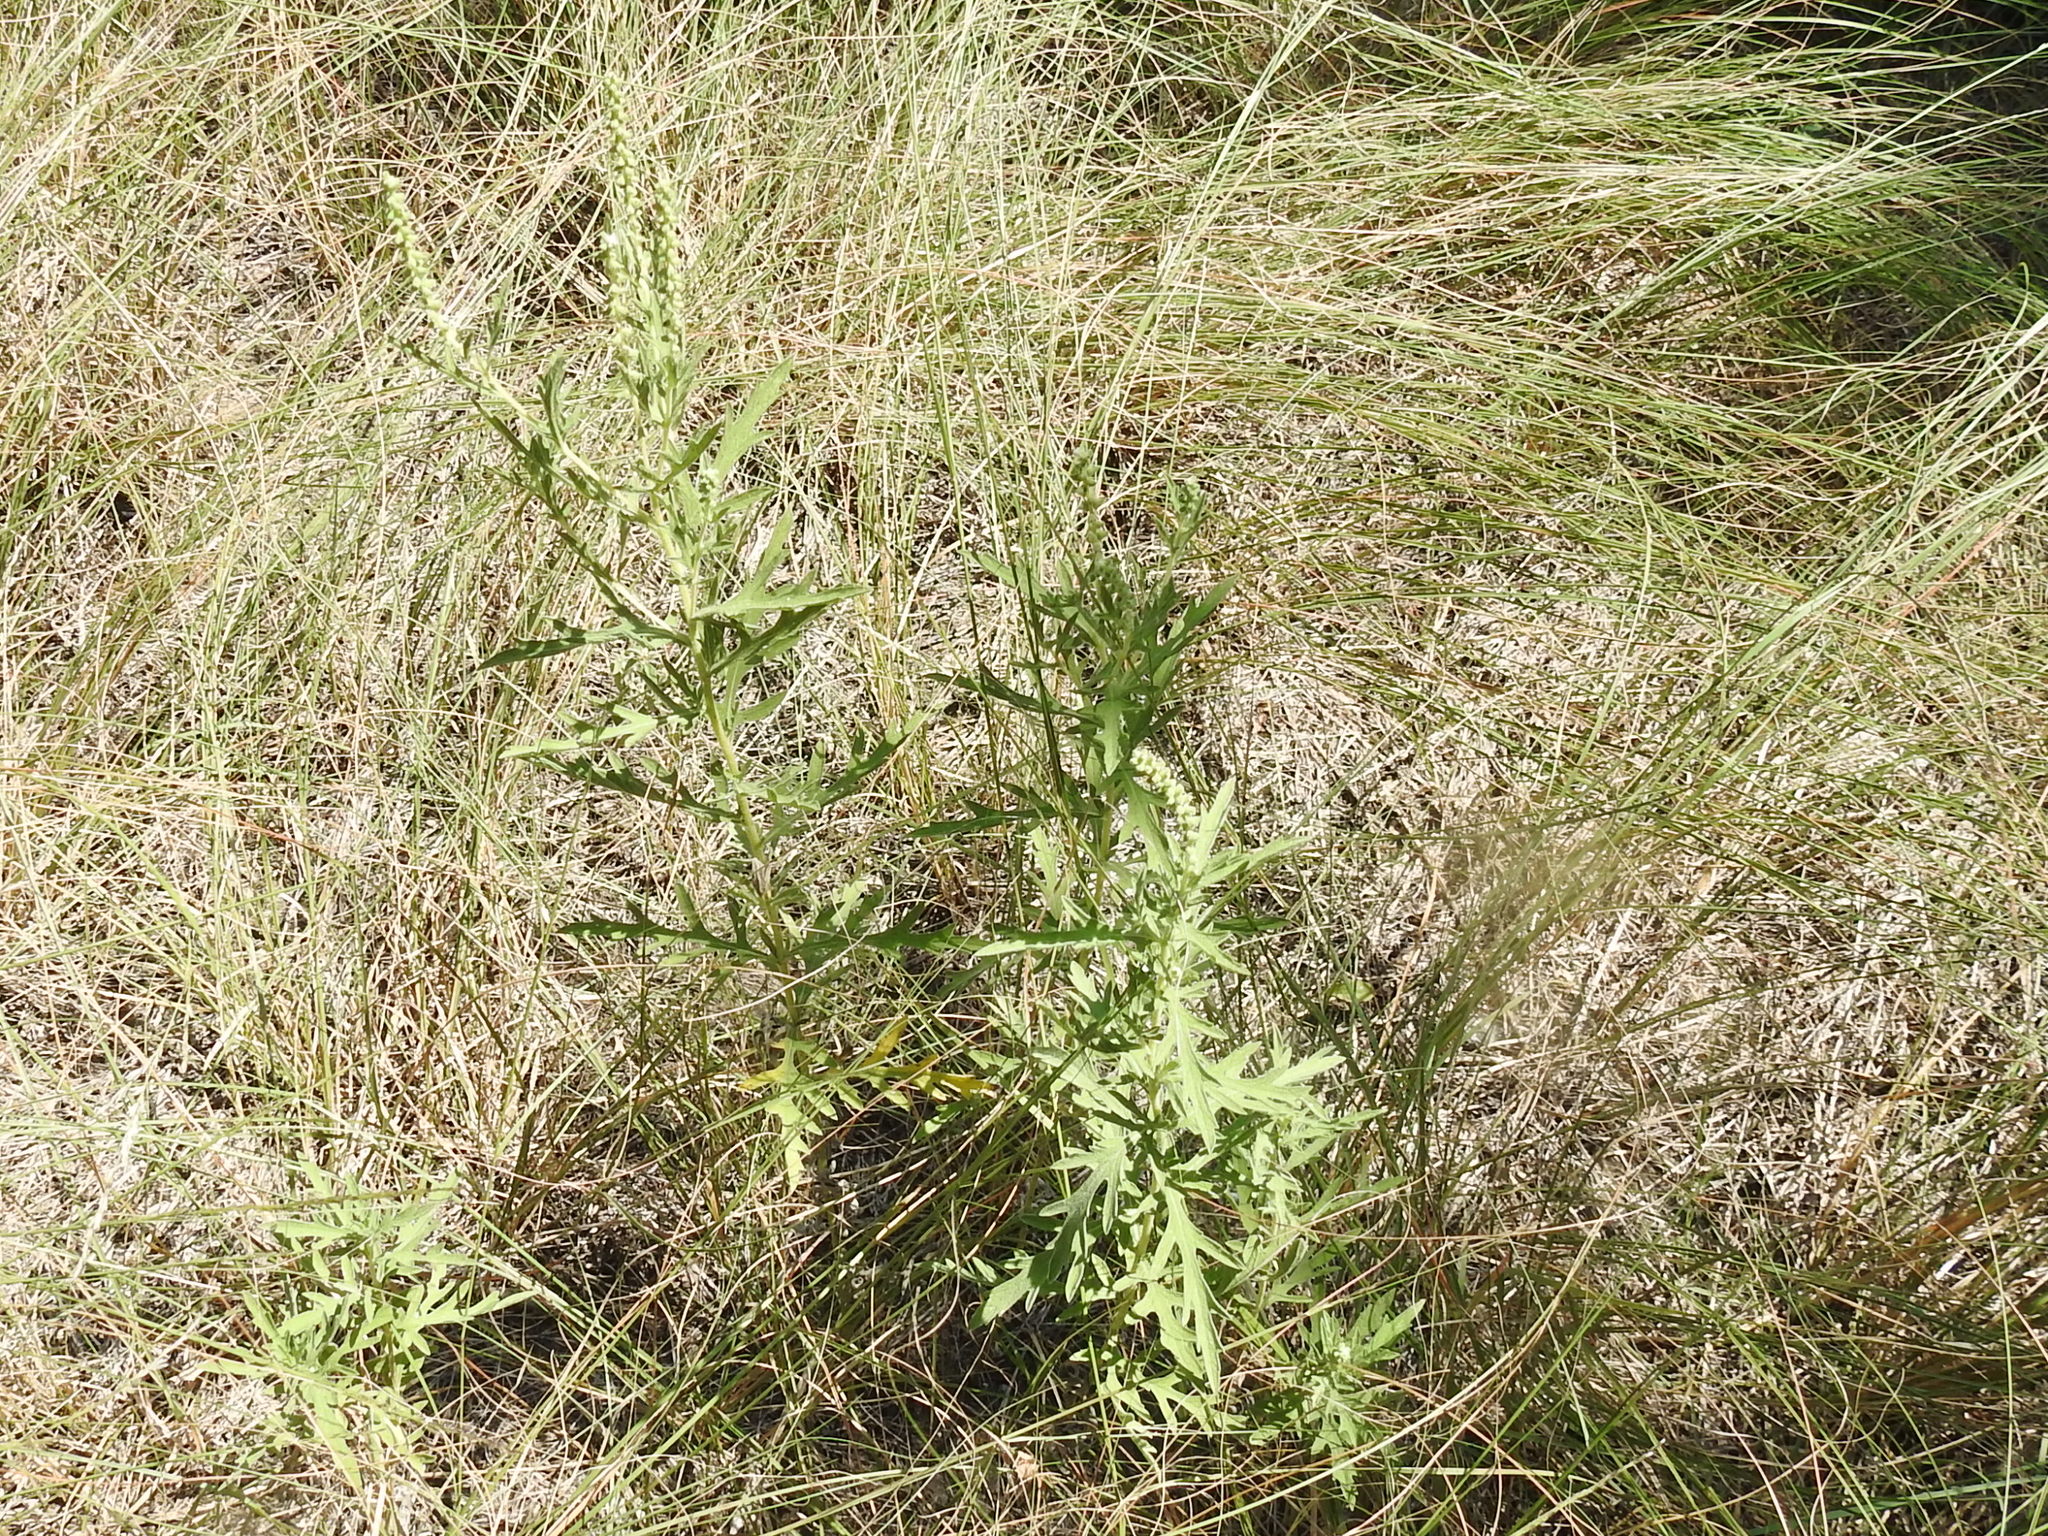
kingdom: Plantae
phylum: Tracheophyta
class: Magnoliopsida
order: Asterales
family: Asteraceae
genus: Ambrosia
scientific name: Ambrosia psilostachya
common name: Perennial ragweed
